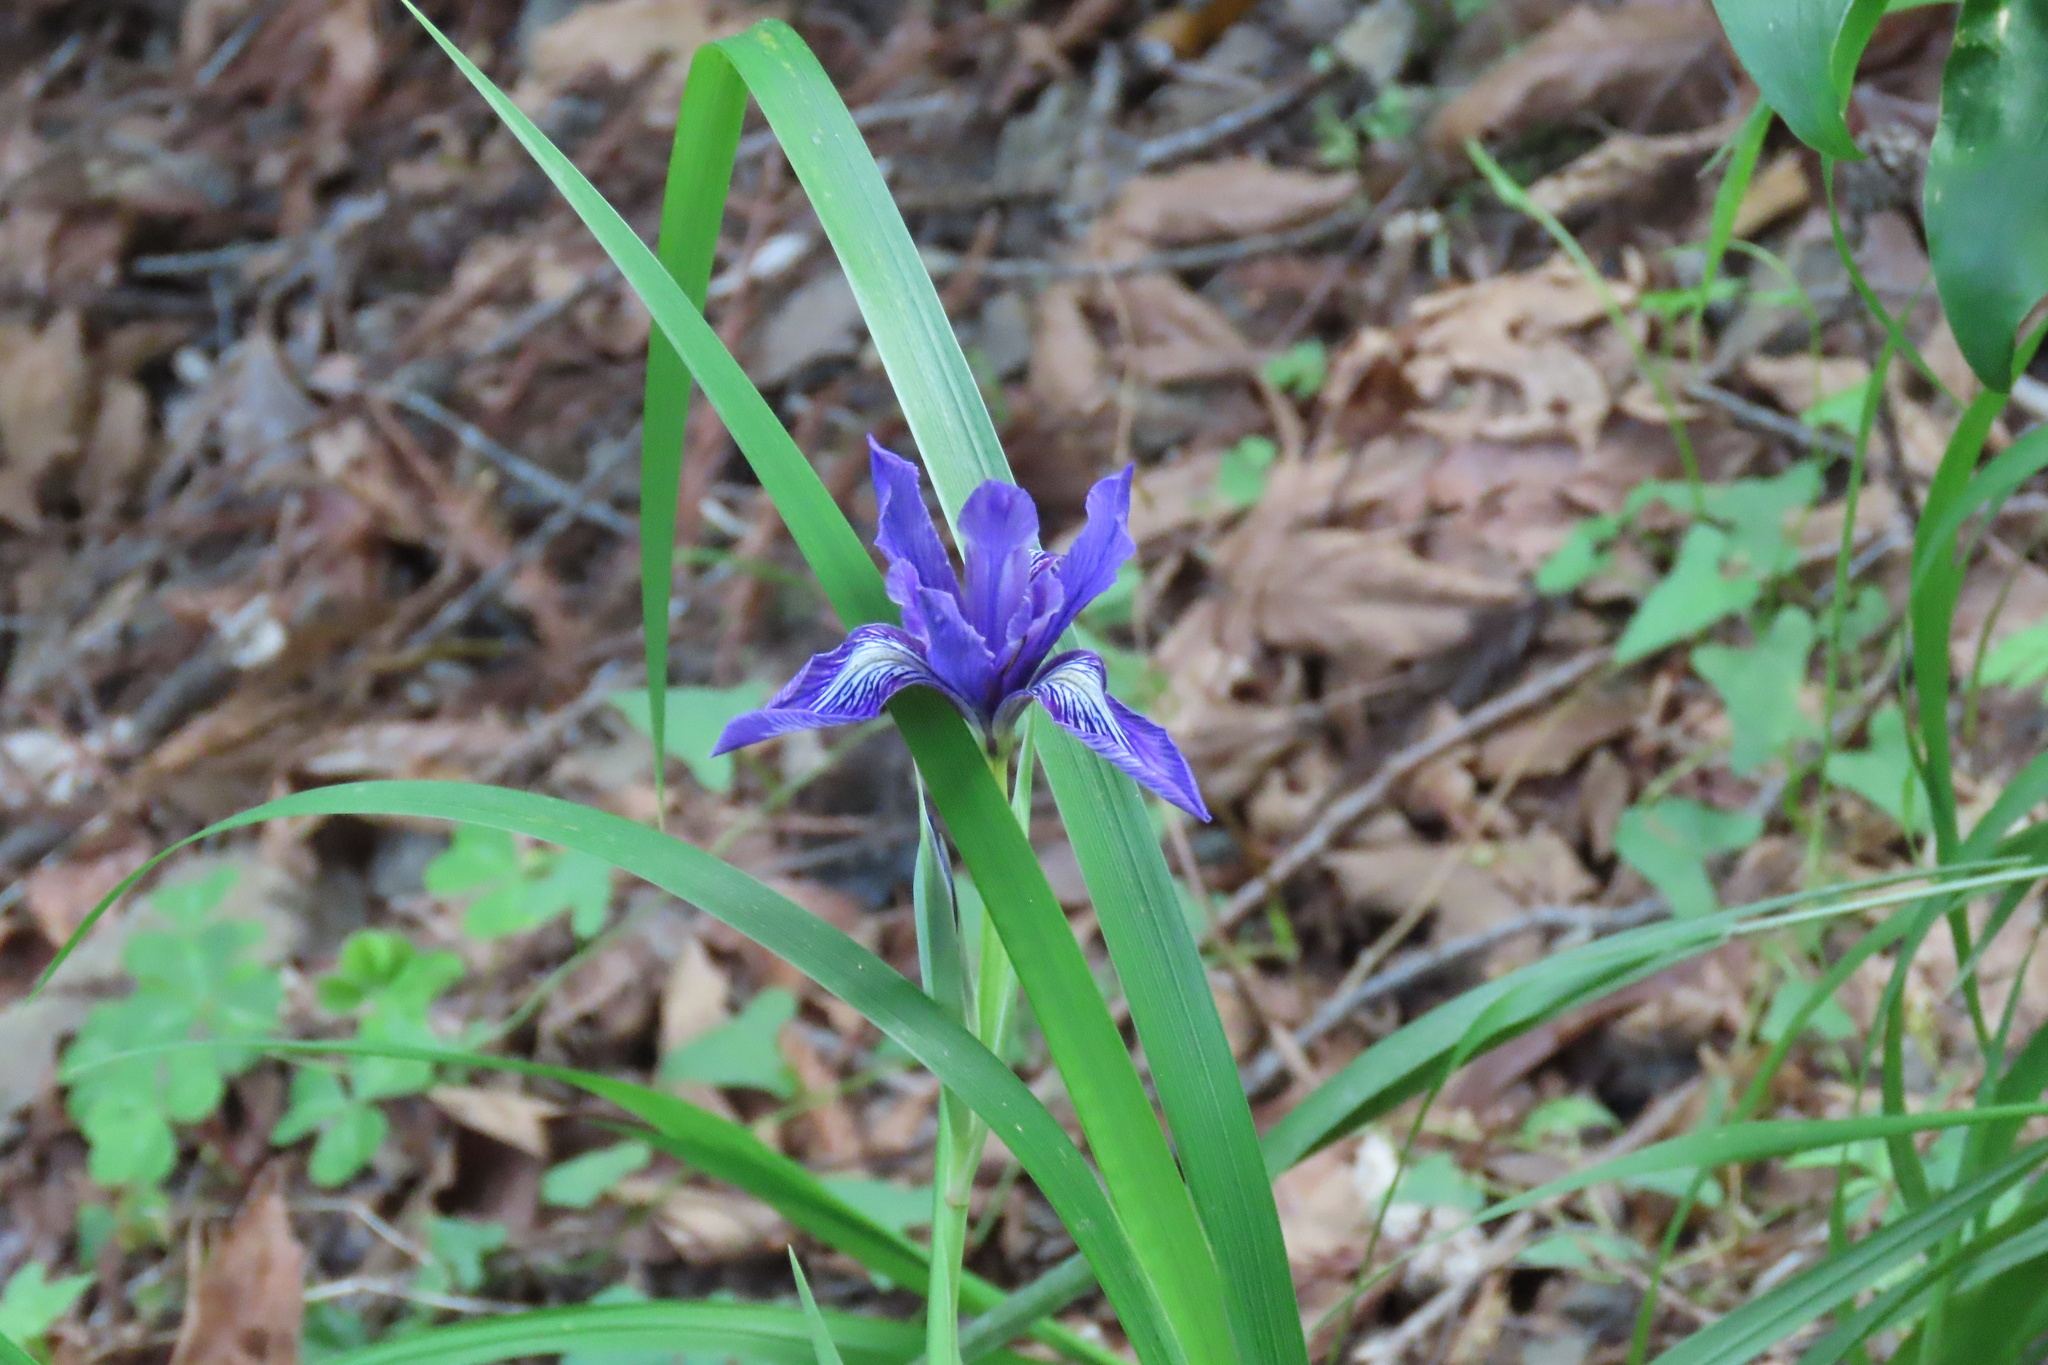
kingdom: Plantae
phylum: Tracheophyta
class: Liliopsida
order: Asparagales
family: Iridaceae
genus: Iris
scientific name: Iris douglasiana
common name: Marin iris
